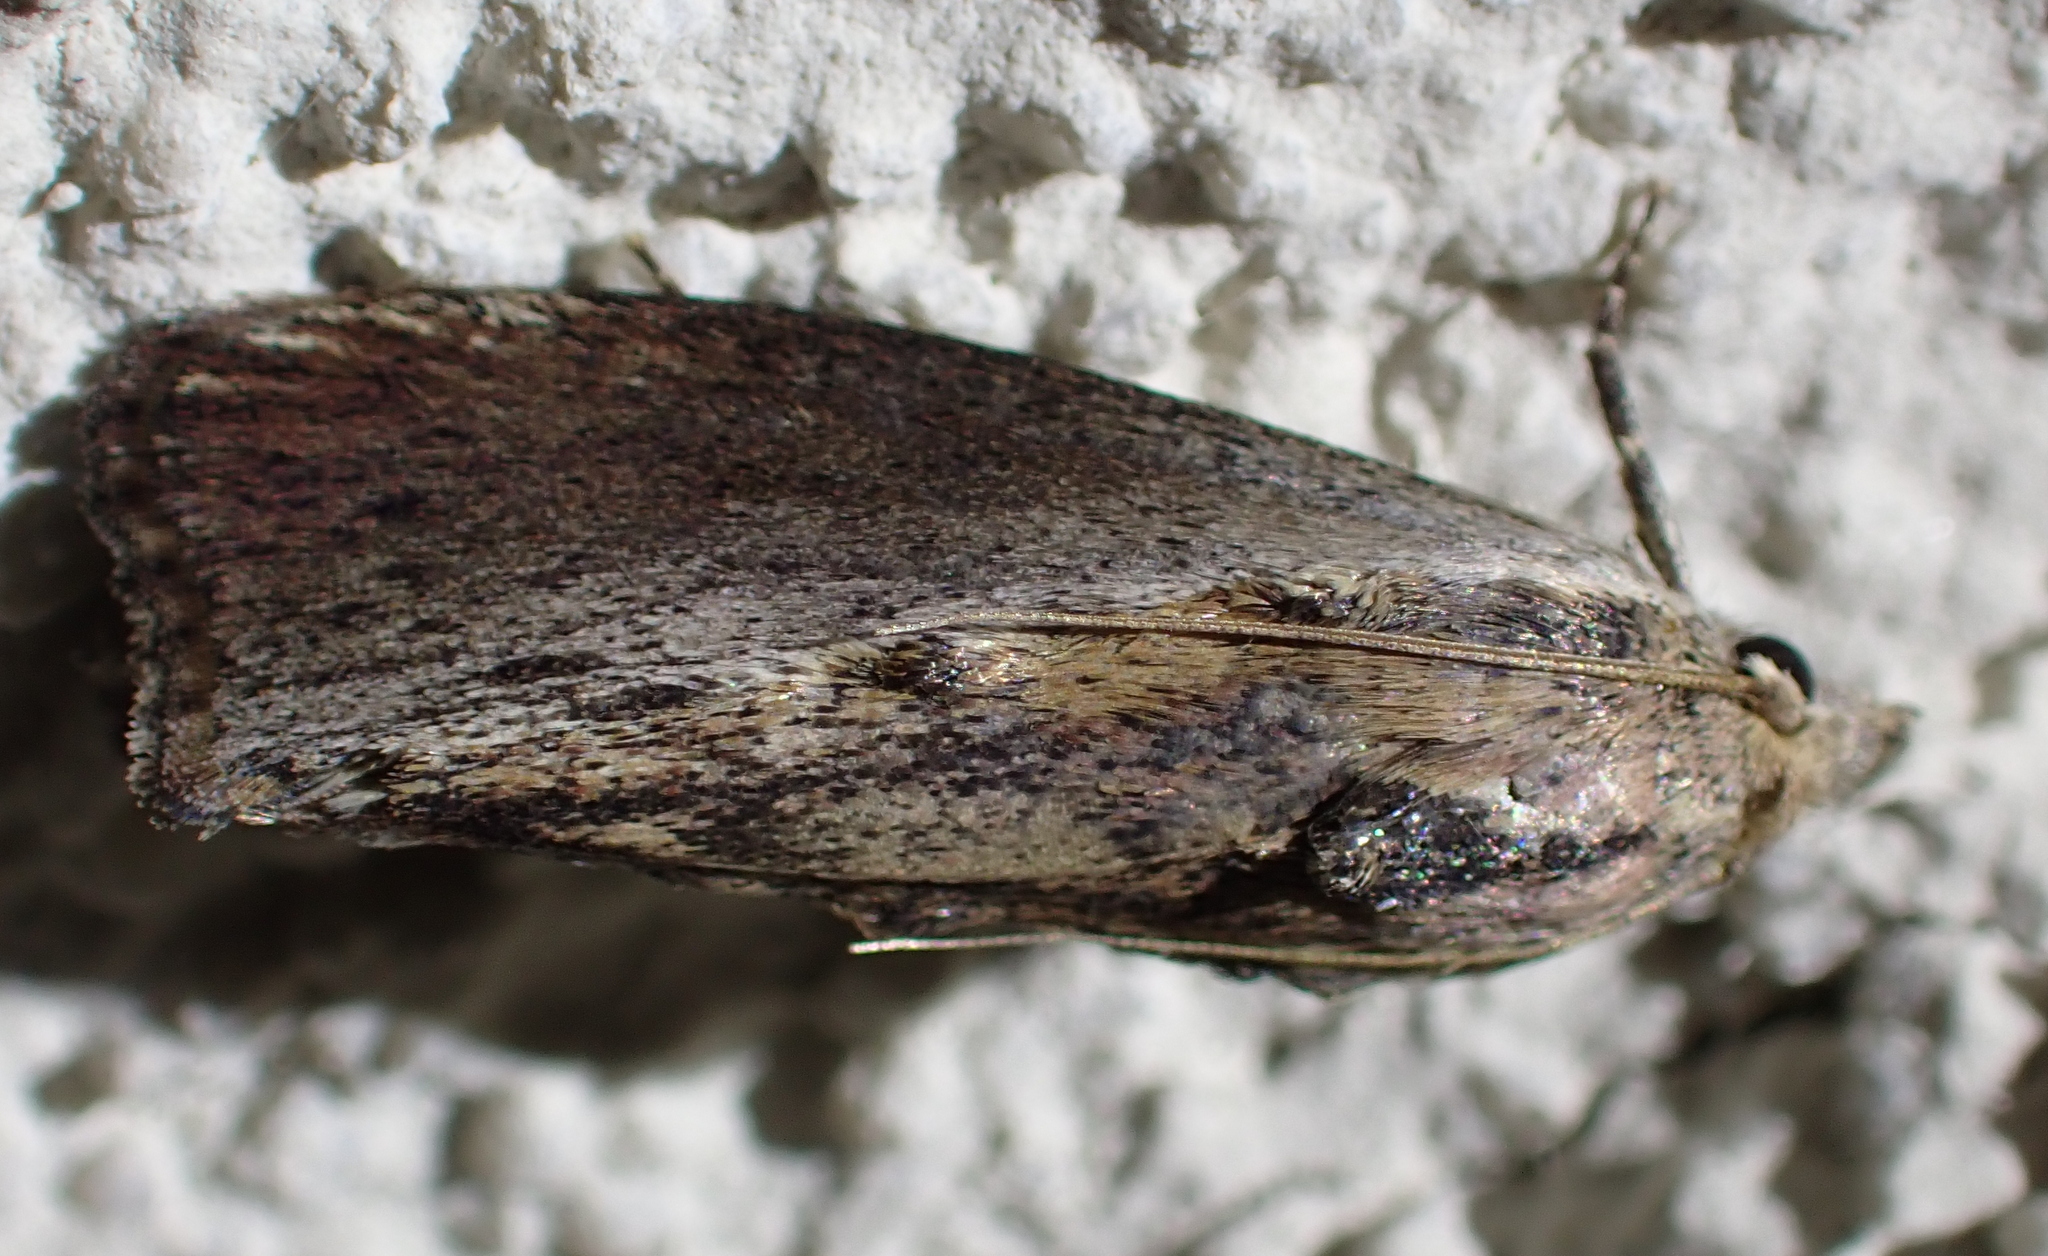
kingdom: Animalia
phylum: Arthropoda
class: Insecta
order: Lepidoptera
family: Pyralidae
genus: Galleria
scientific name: Galleria mellonella
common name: Greater wax moth
